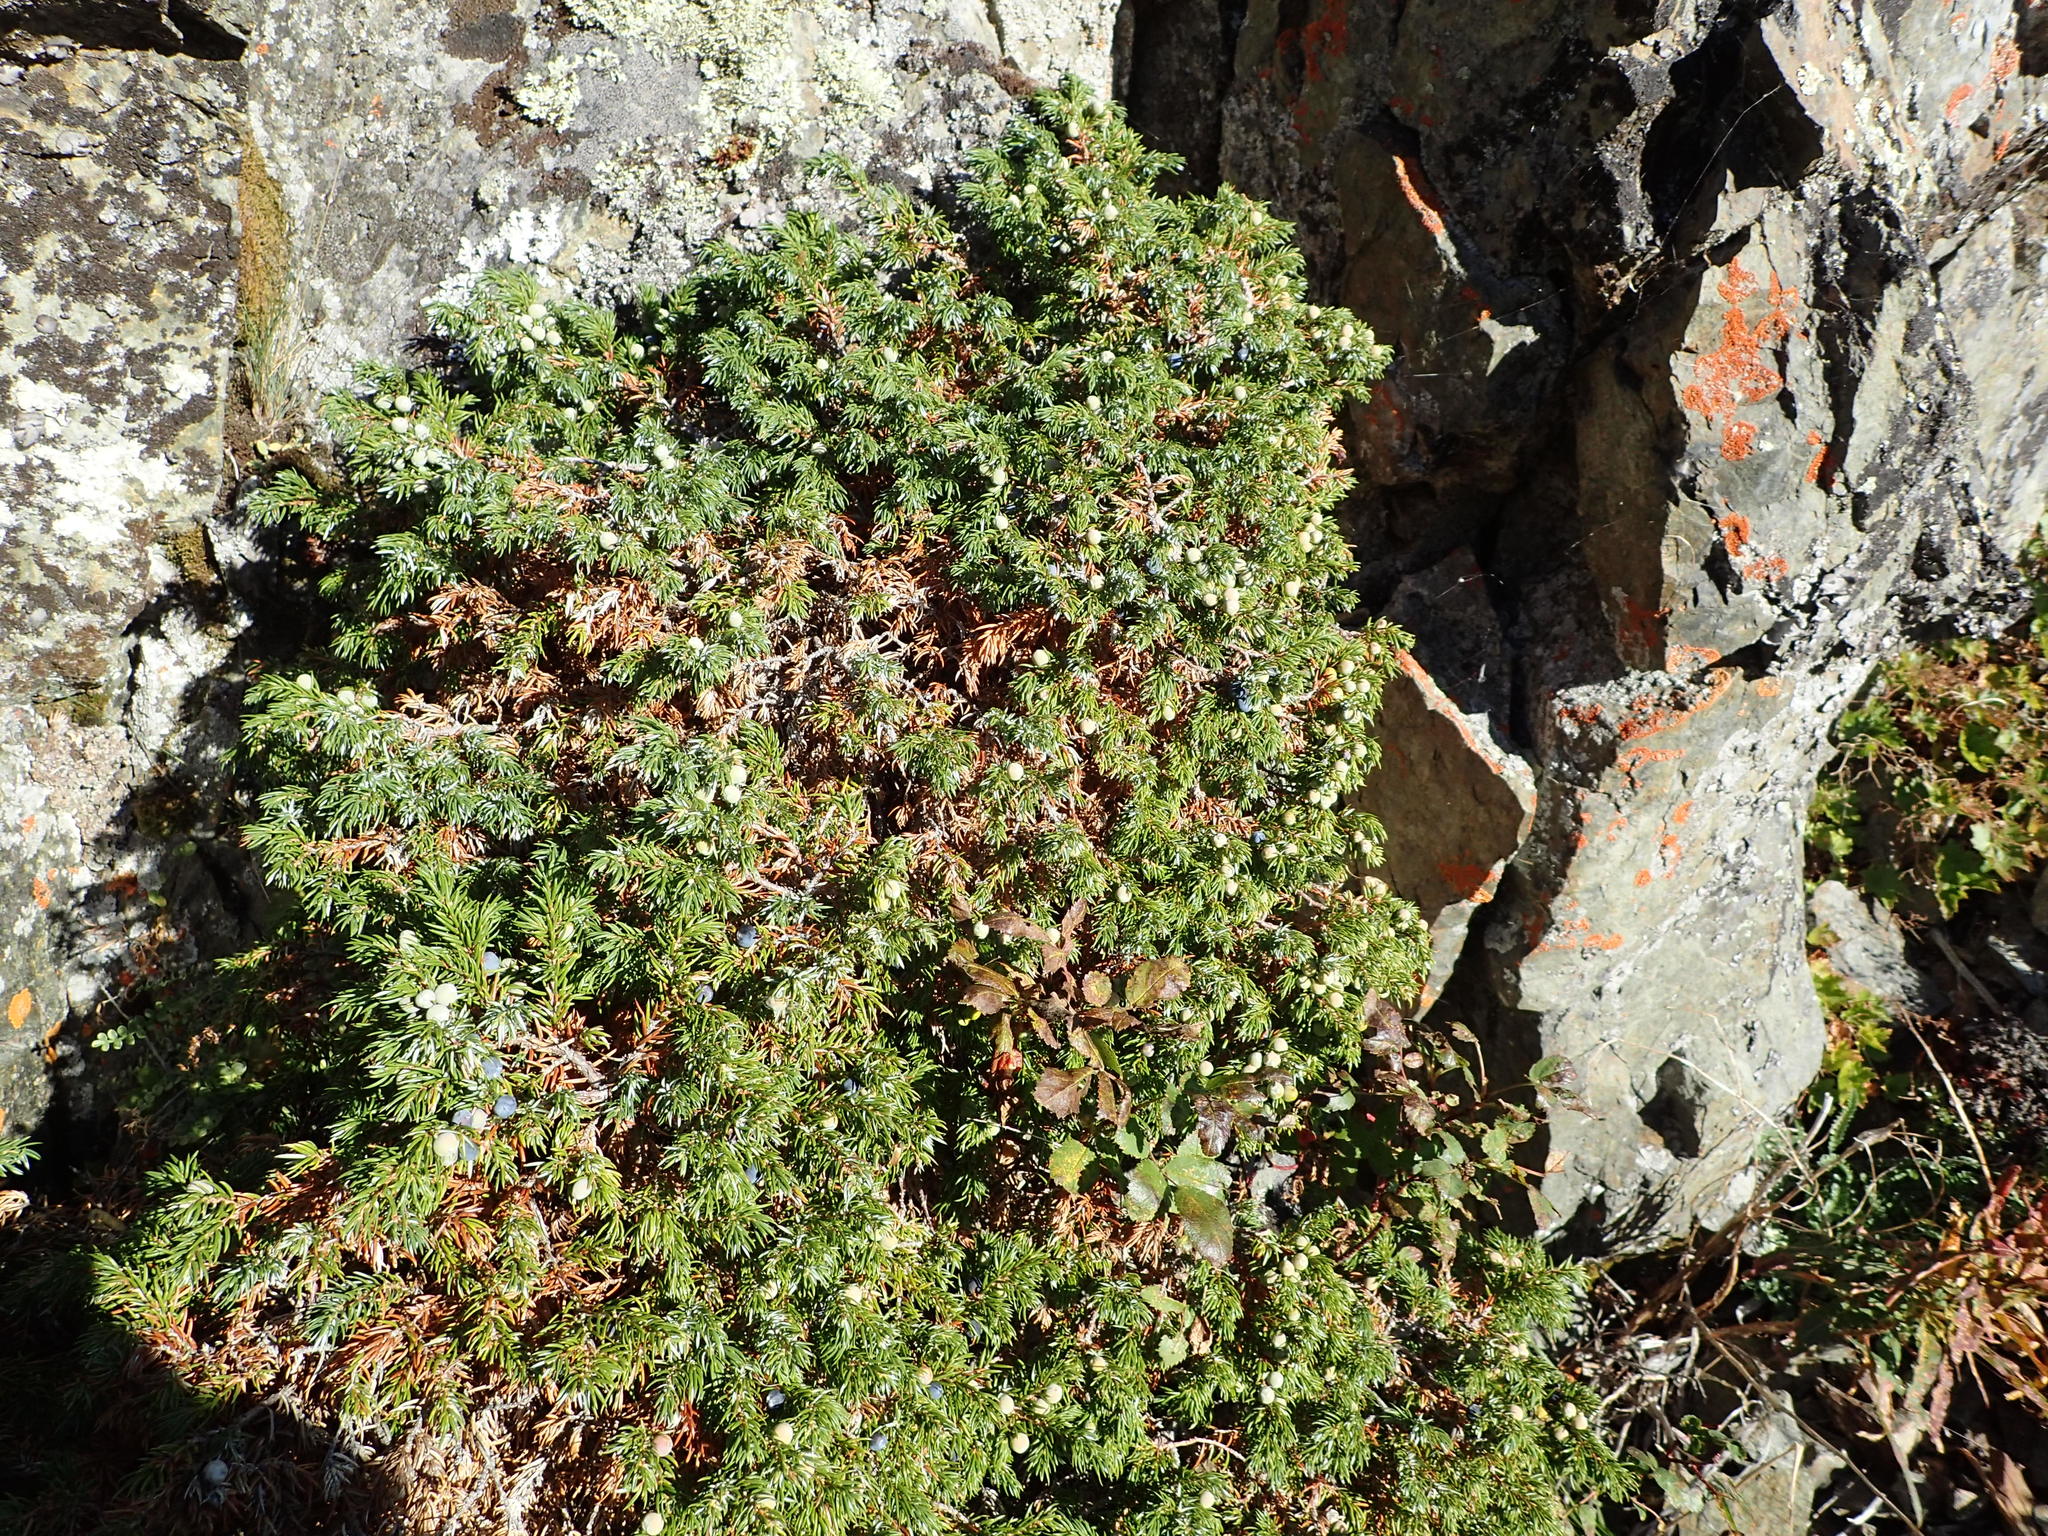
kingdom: Plantae
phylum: Tracheophyta
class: Pinopsida
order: Pinales
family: Cupressaceae
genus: Juniperus
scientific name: Juniperus communis
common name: Common juniper
